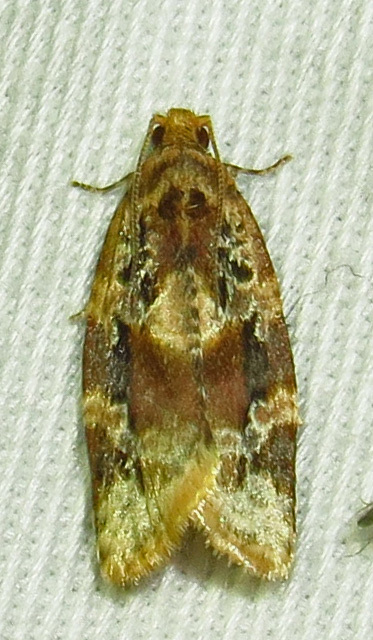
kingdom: Animalia
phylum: Arthropoda
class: Insecta
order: Lepidoptera
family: Tortricidae
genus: Argyrotaenia
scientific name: Argyrotaenia velutinana
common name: Red-banded leafroller moth
